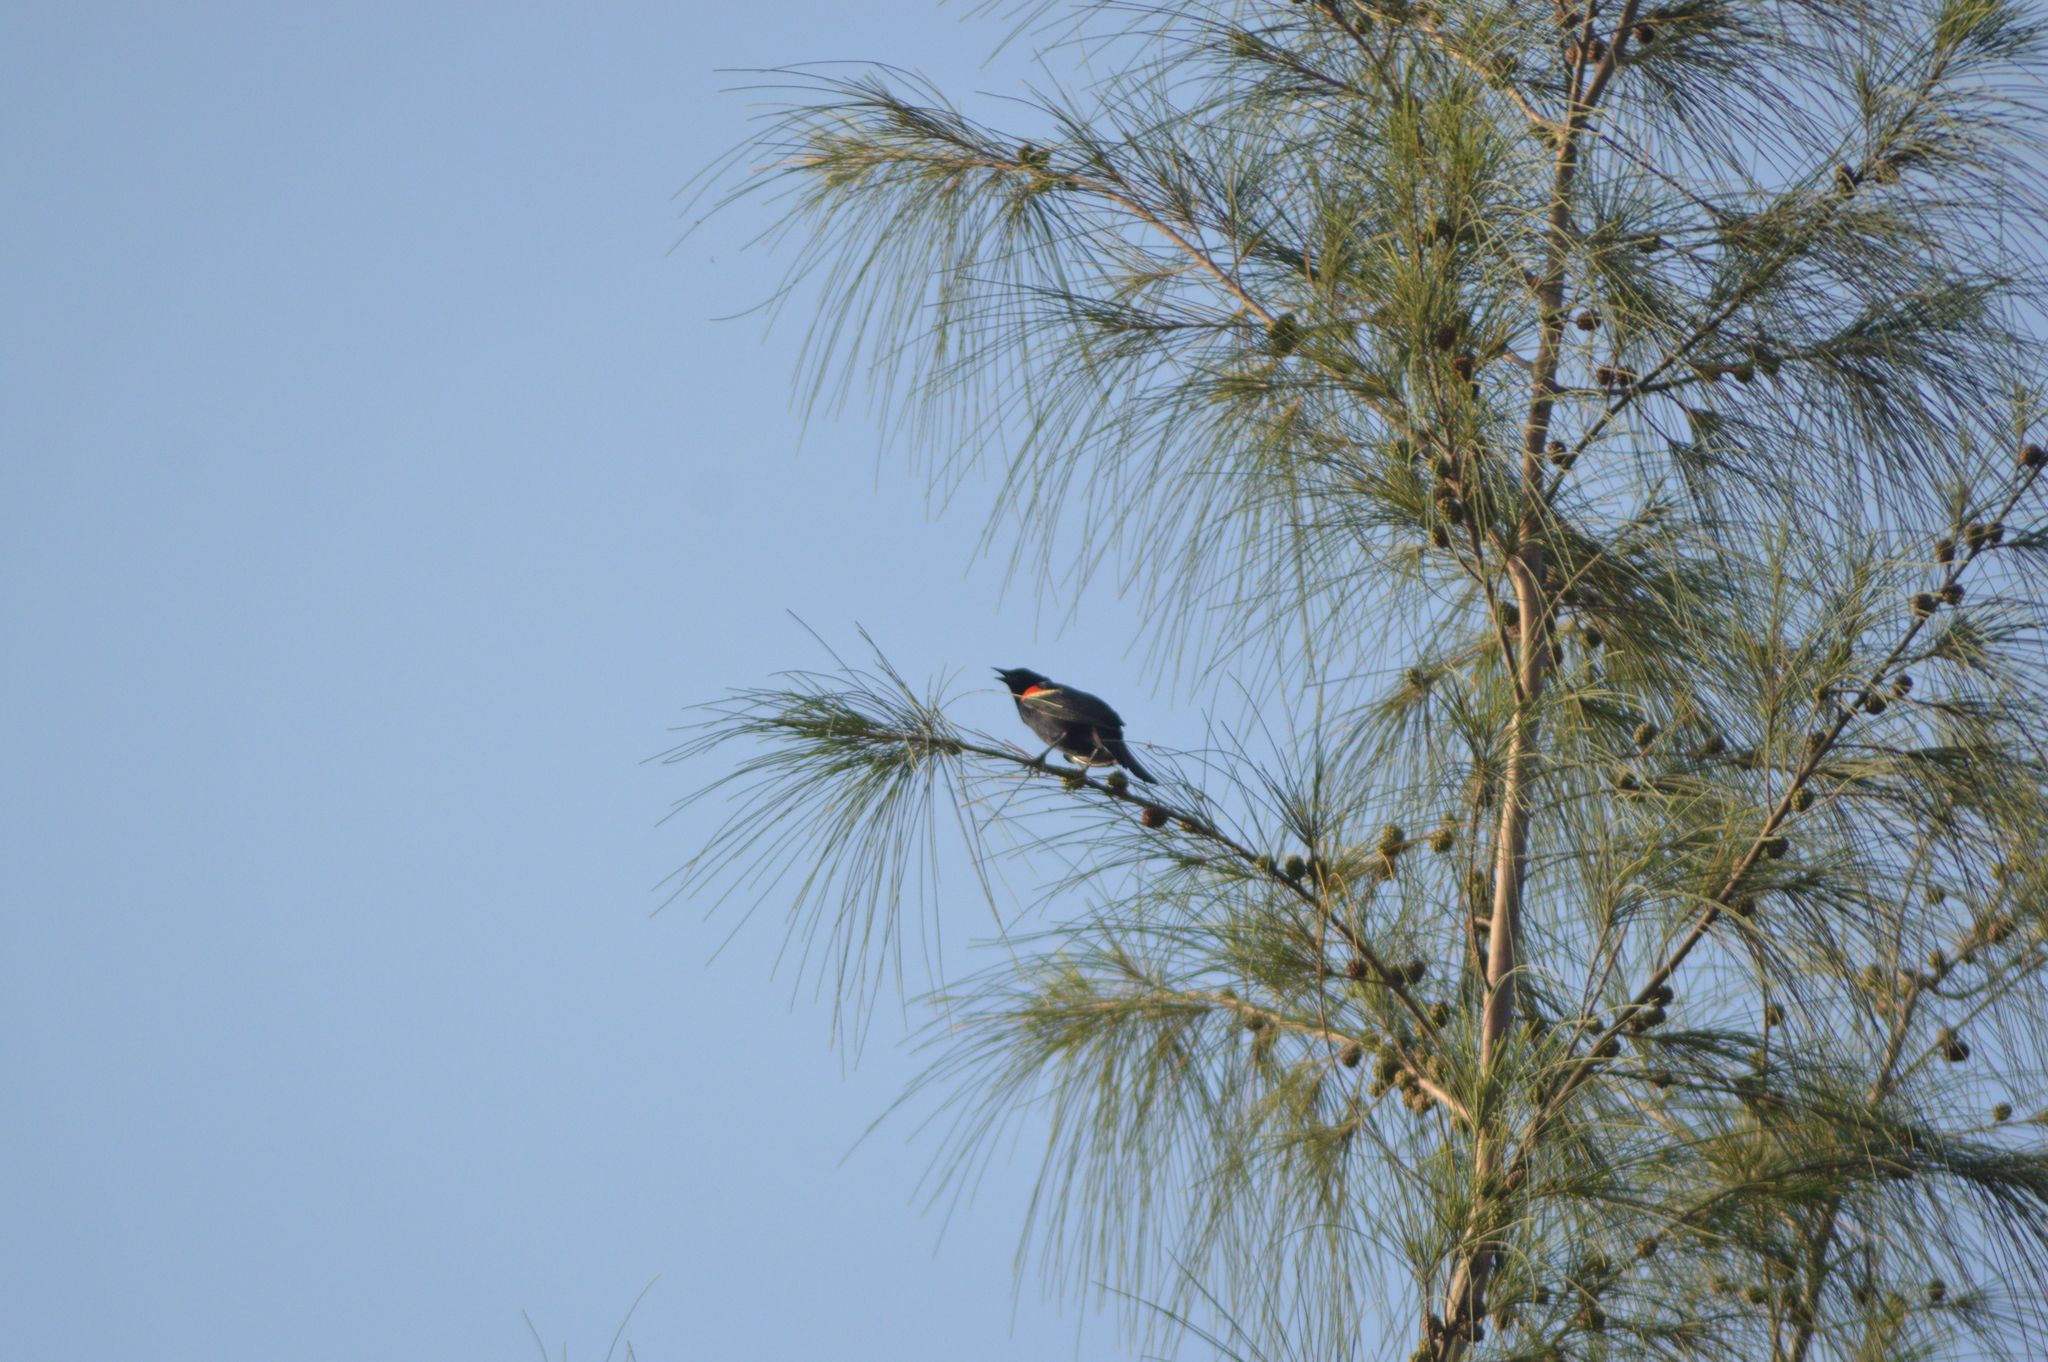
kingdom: Animalia
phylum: Chordata
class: Aves
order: Passeriformes
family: Icteridae
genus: Agelaius
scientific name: Agelaius phoeniceus
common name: Red-winged blackbird
